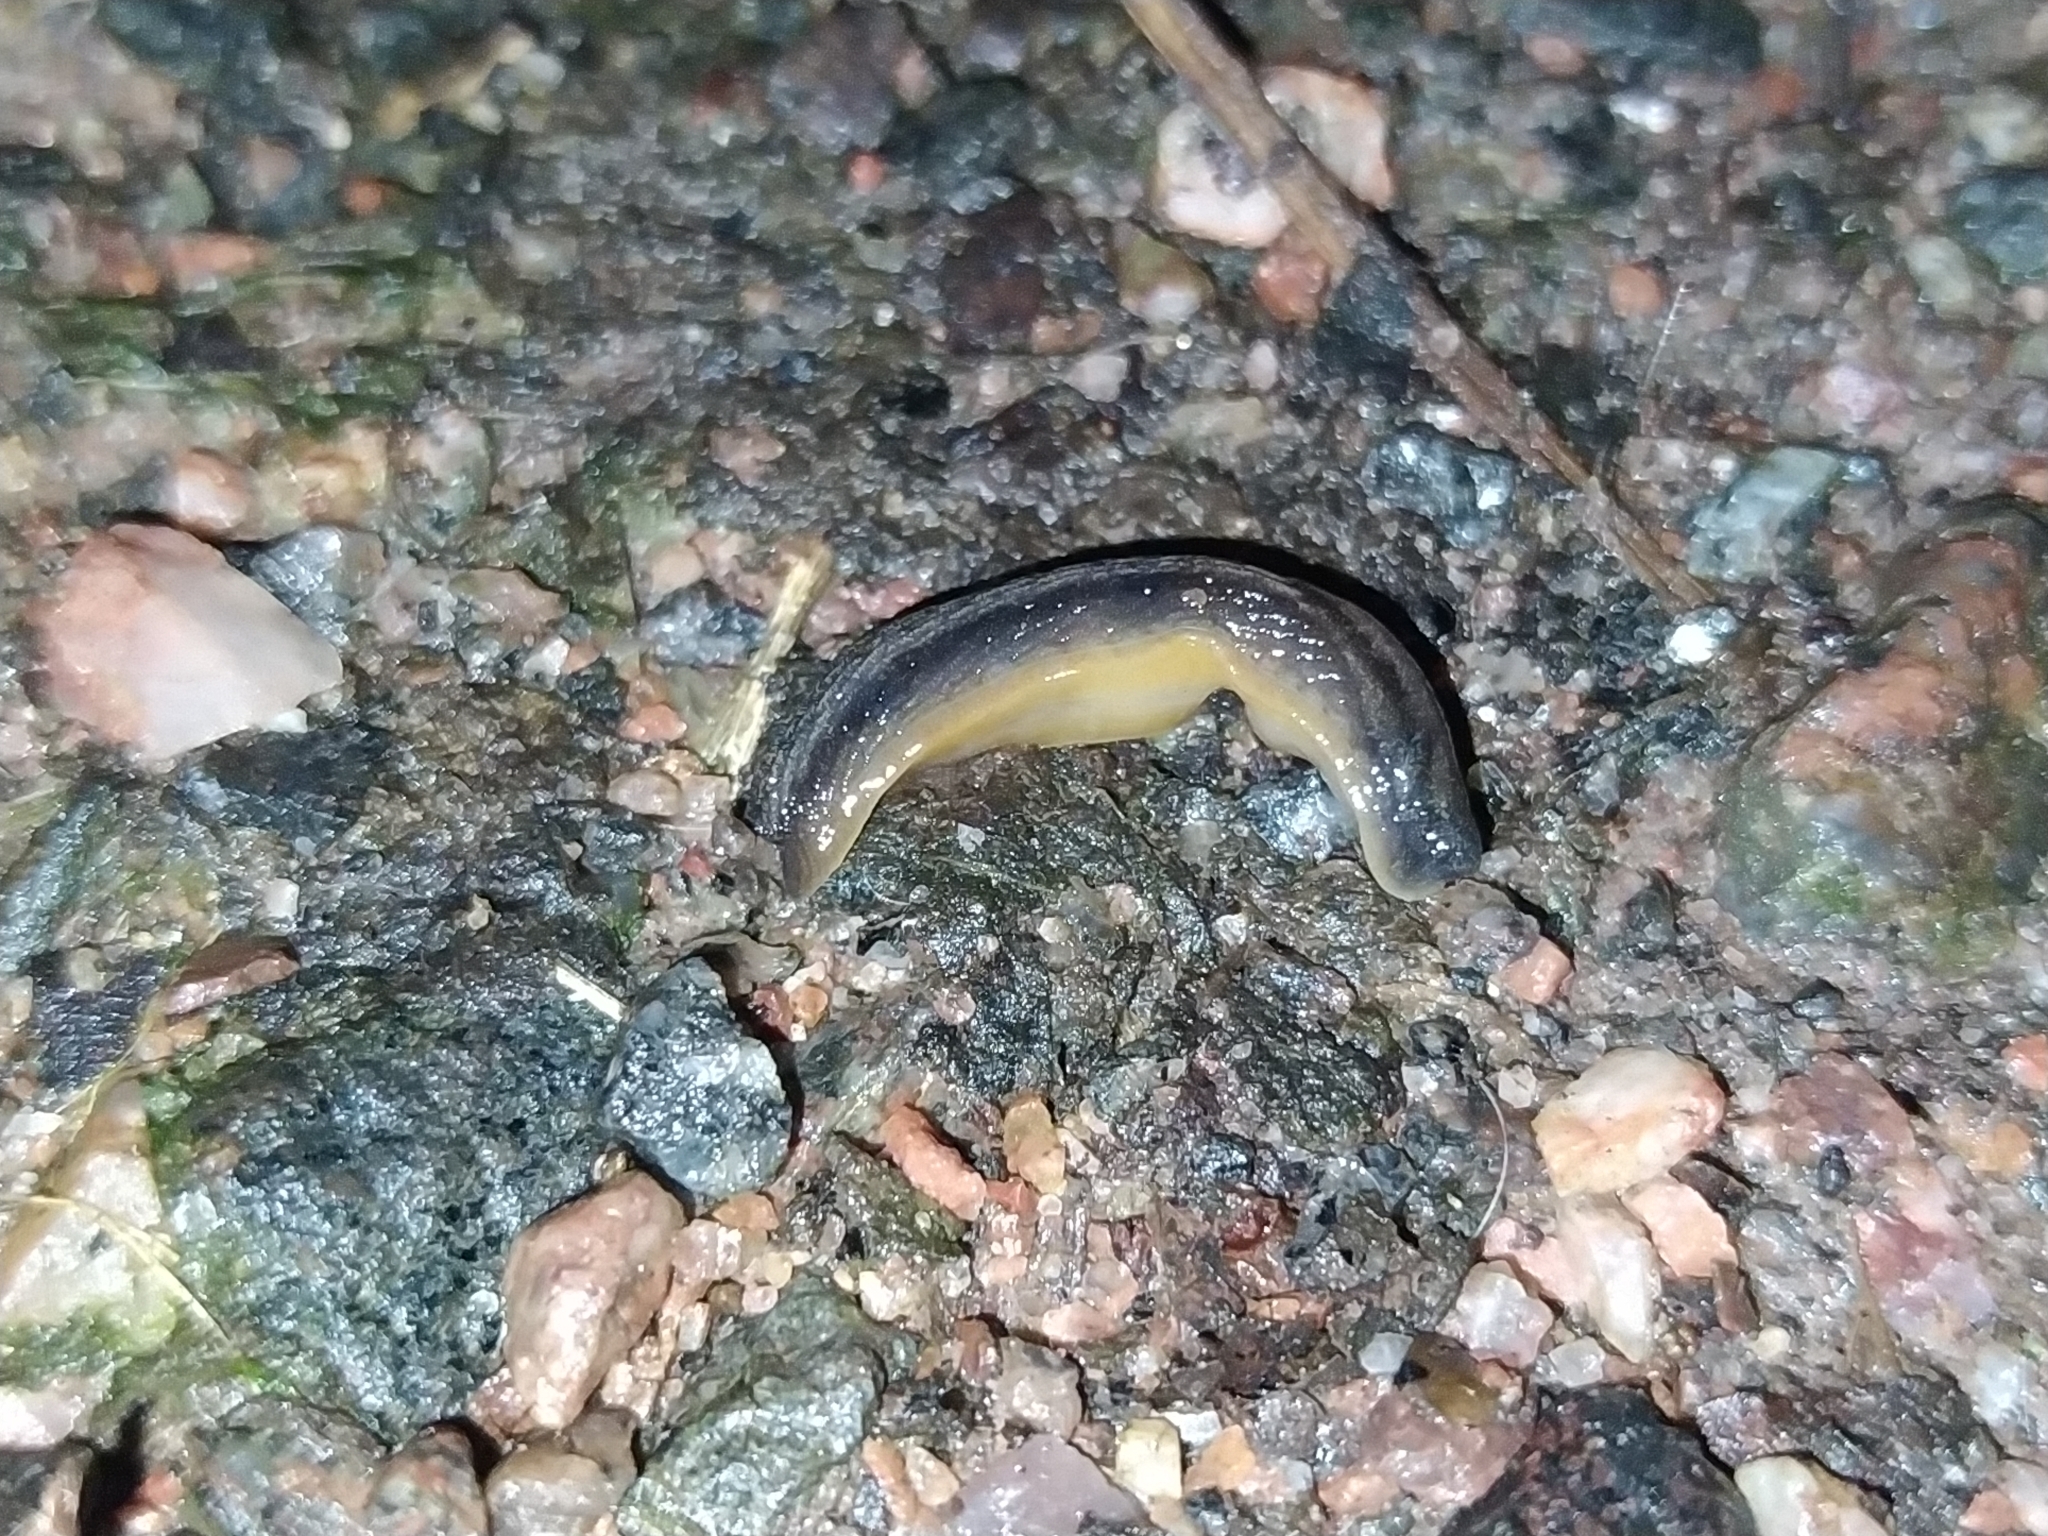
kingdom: Animalia
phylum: Mollusca
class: Gastropoda
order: Stylommatophora
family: Arionidae
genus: Arion
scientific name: Arion distinctus
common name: Darkface arion
